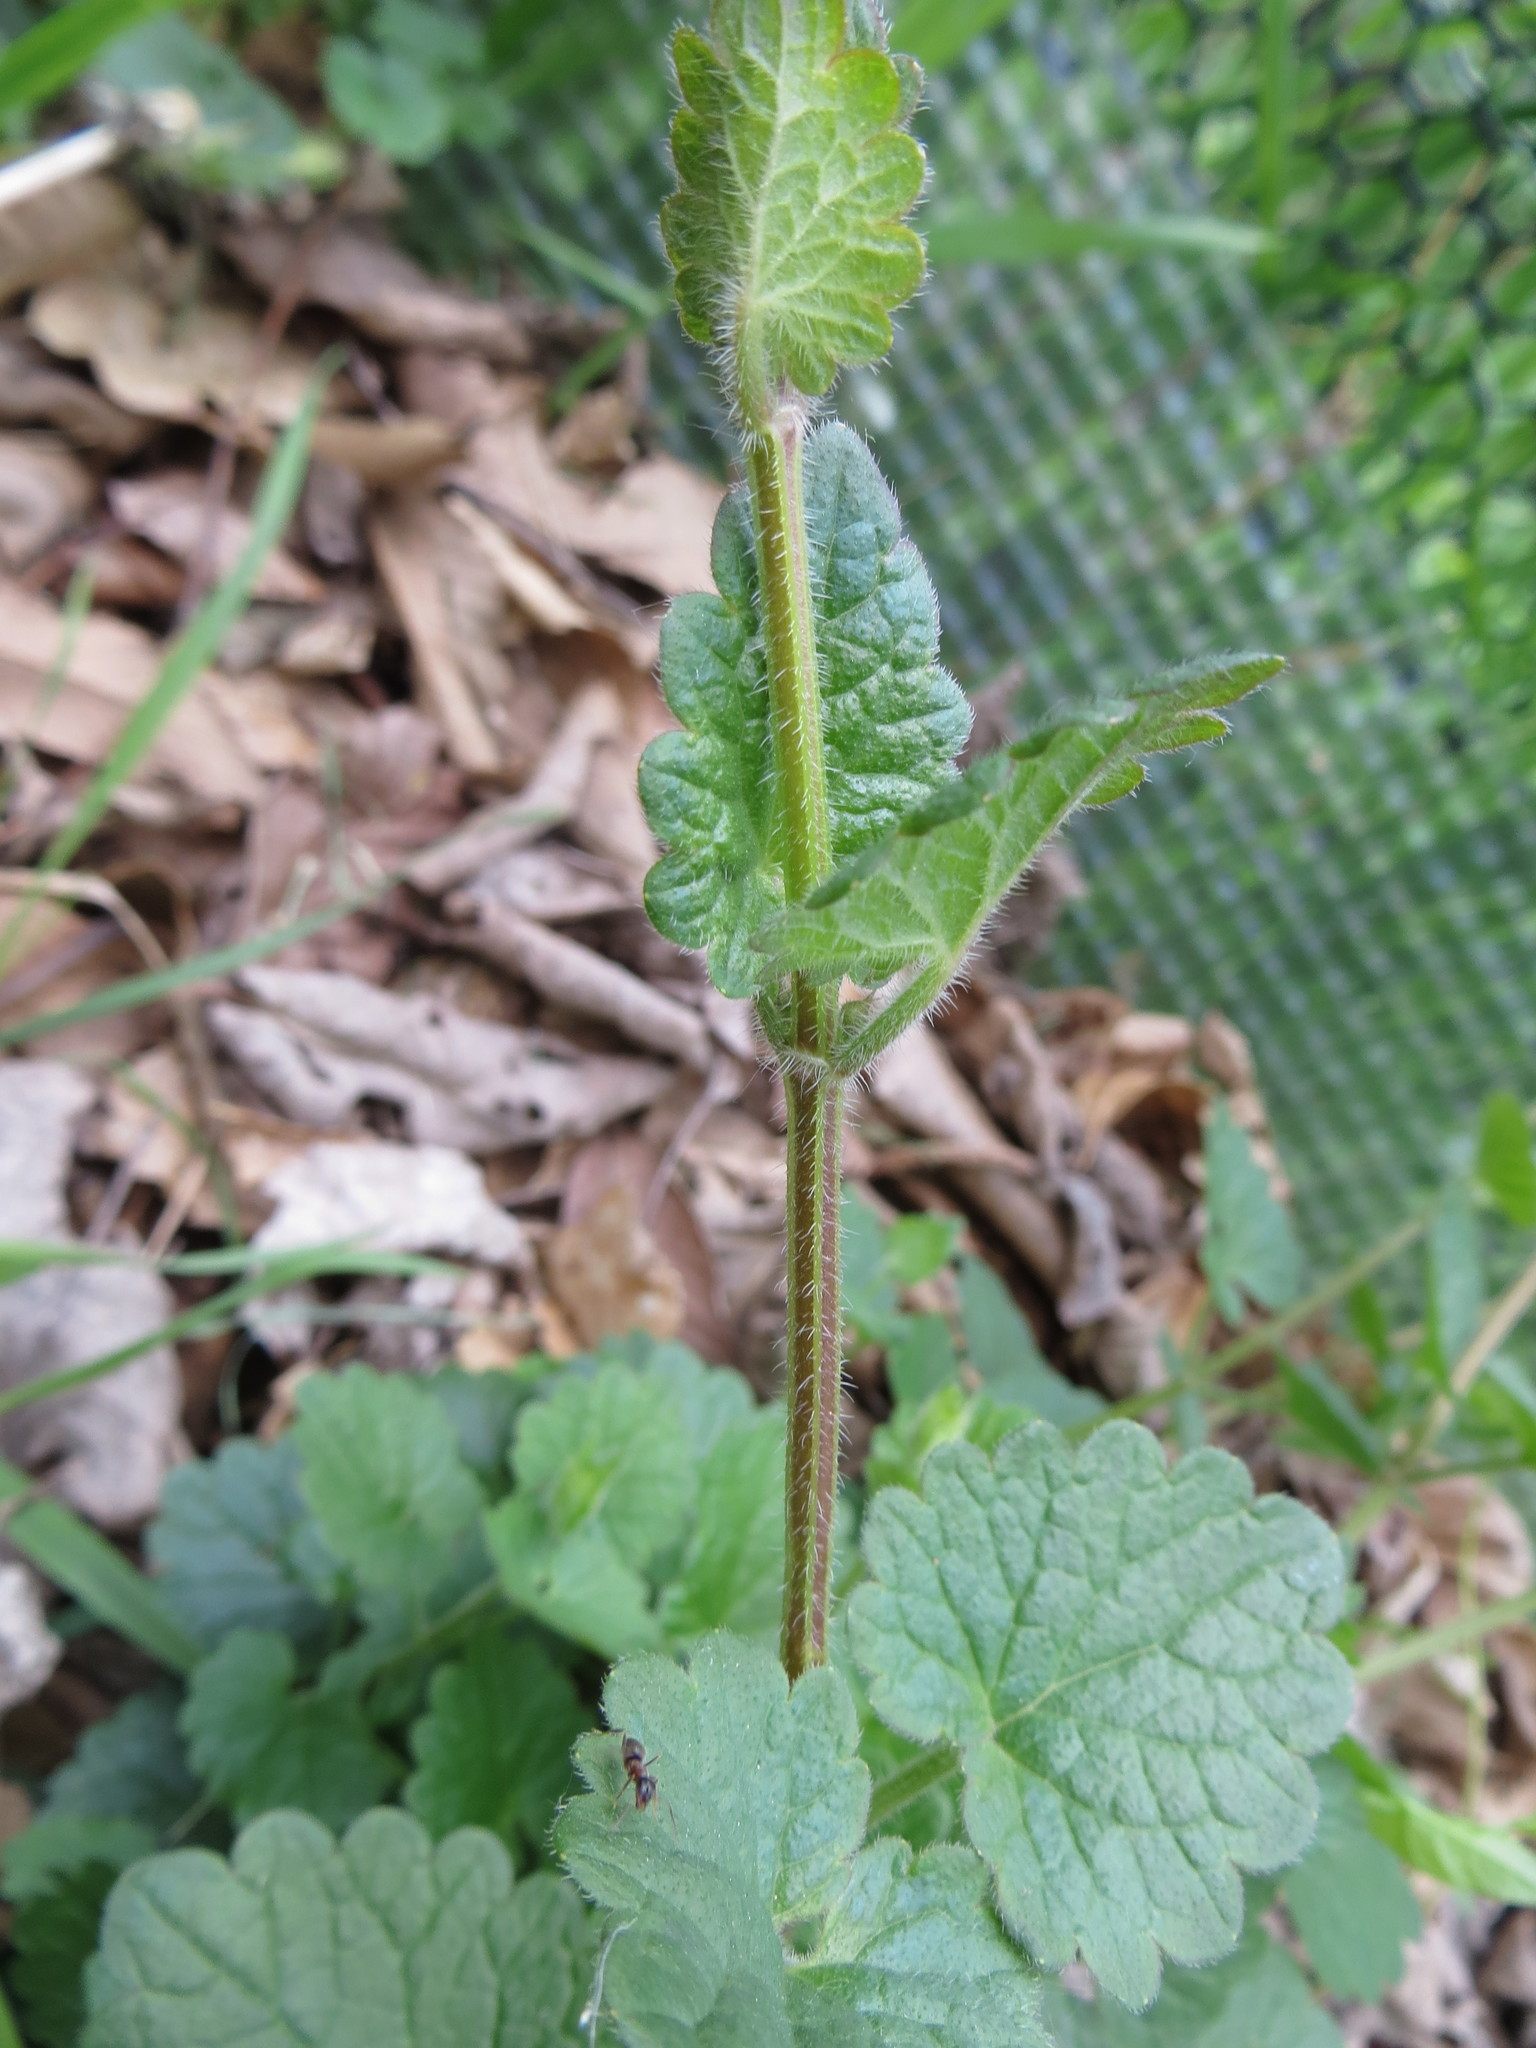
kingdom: Plantae
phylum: Tracheophyta
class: Magnoliopsida
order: Lamiales
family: Lamiaceae
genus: Glechoma
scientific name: Glechoma hederacea
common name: Ground ivy
